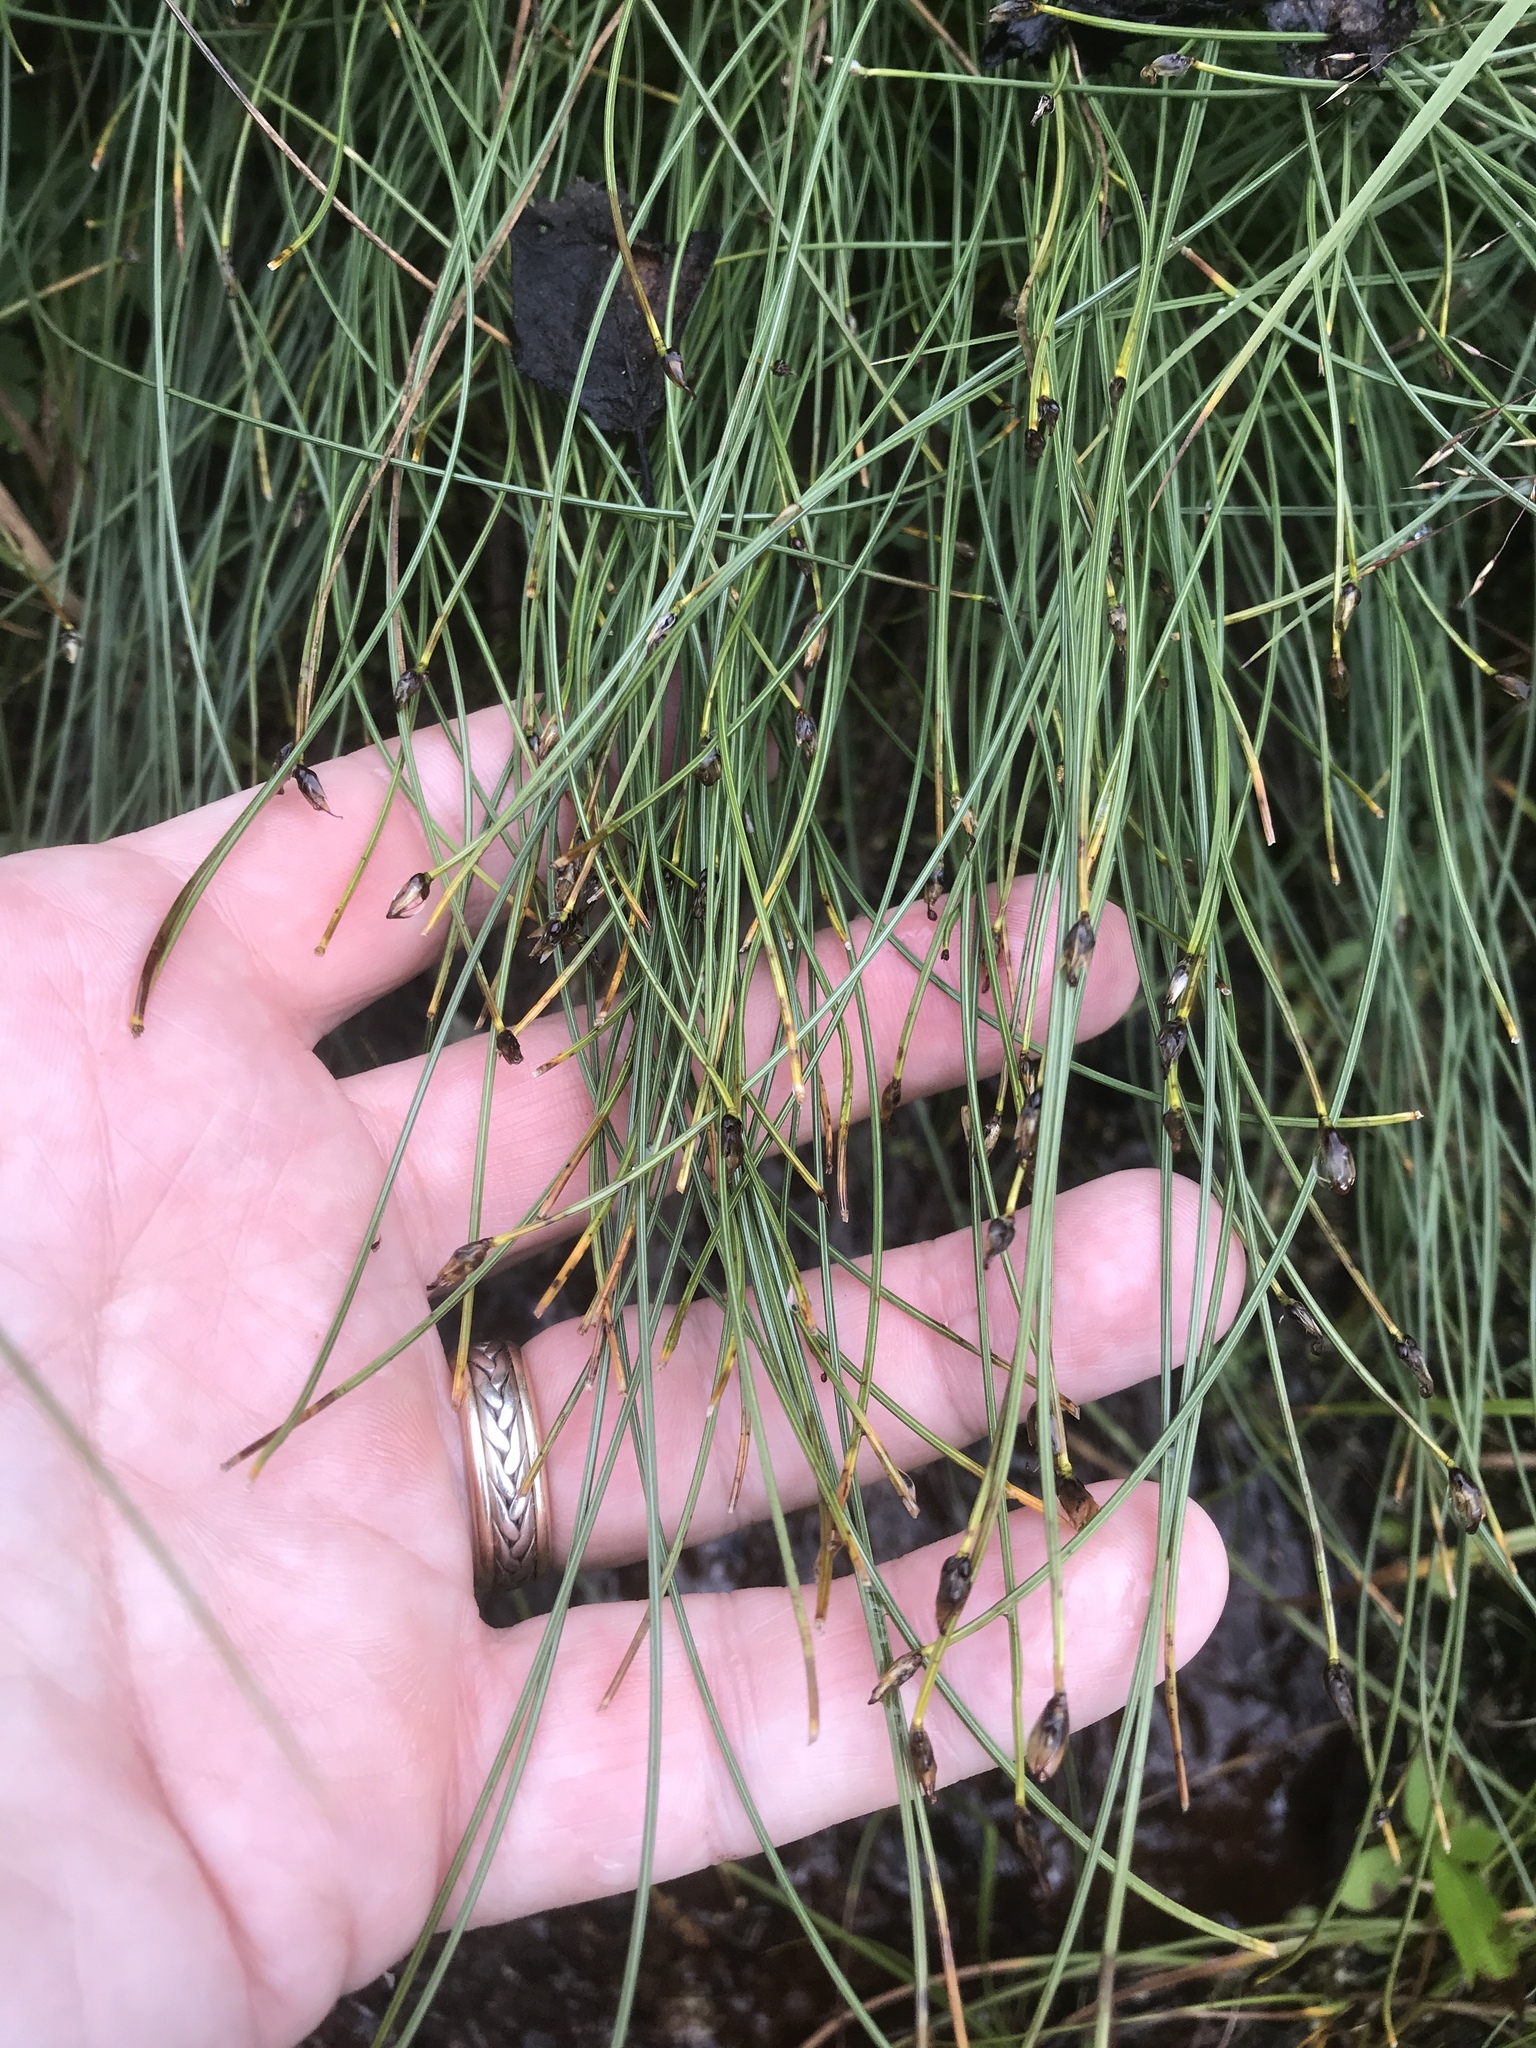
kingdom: Plantae
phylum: Tracheophyta
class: Liliopsida
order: Poales
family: Cyperaceae
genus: Trichophorum
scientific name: Trichophorum cespitosum
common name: Cespitose bulrush
